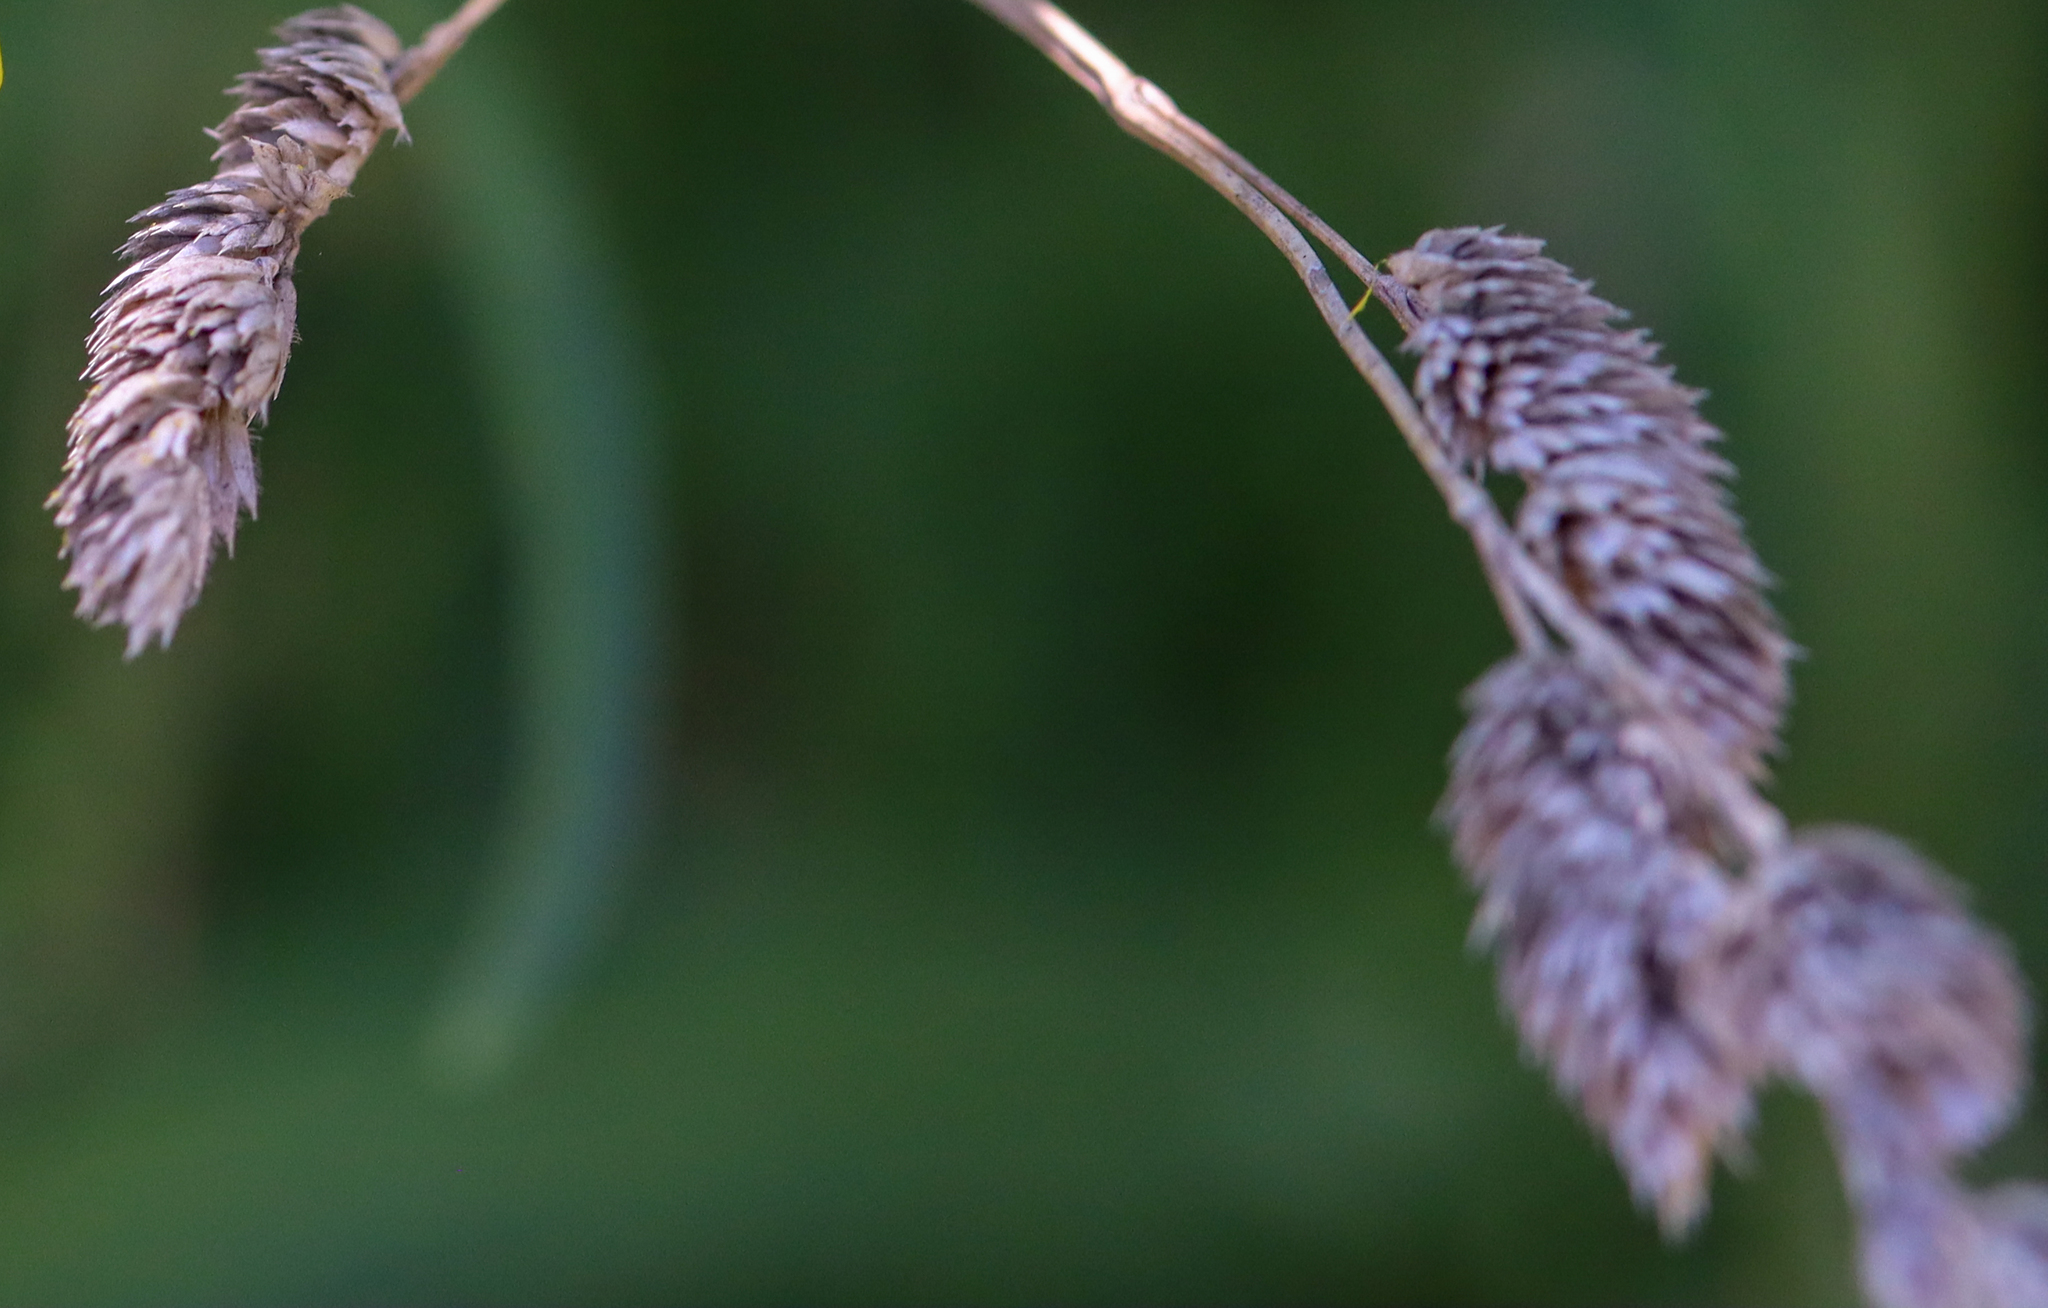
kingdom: Plantae
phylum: Tracheophyta
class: Liliopsida
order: Poales
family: Poaceae
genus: Dactylis
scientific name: Dactylis glomerata
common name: Orchardgrass
